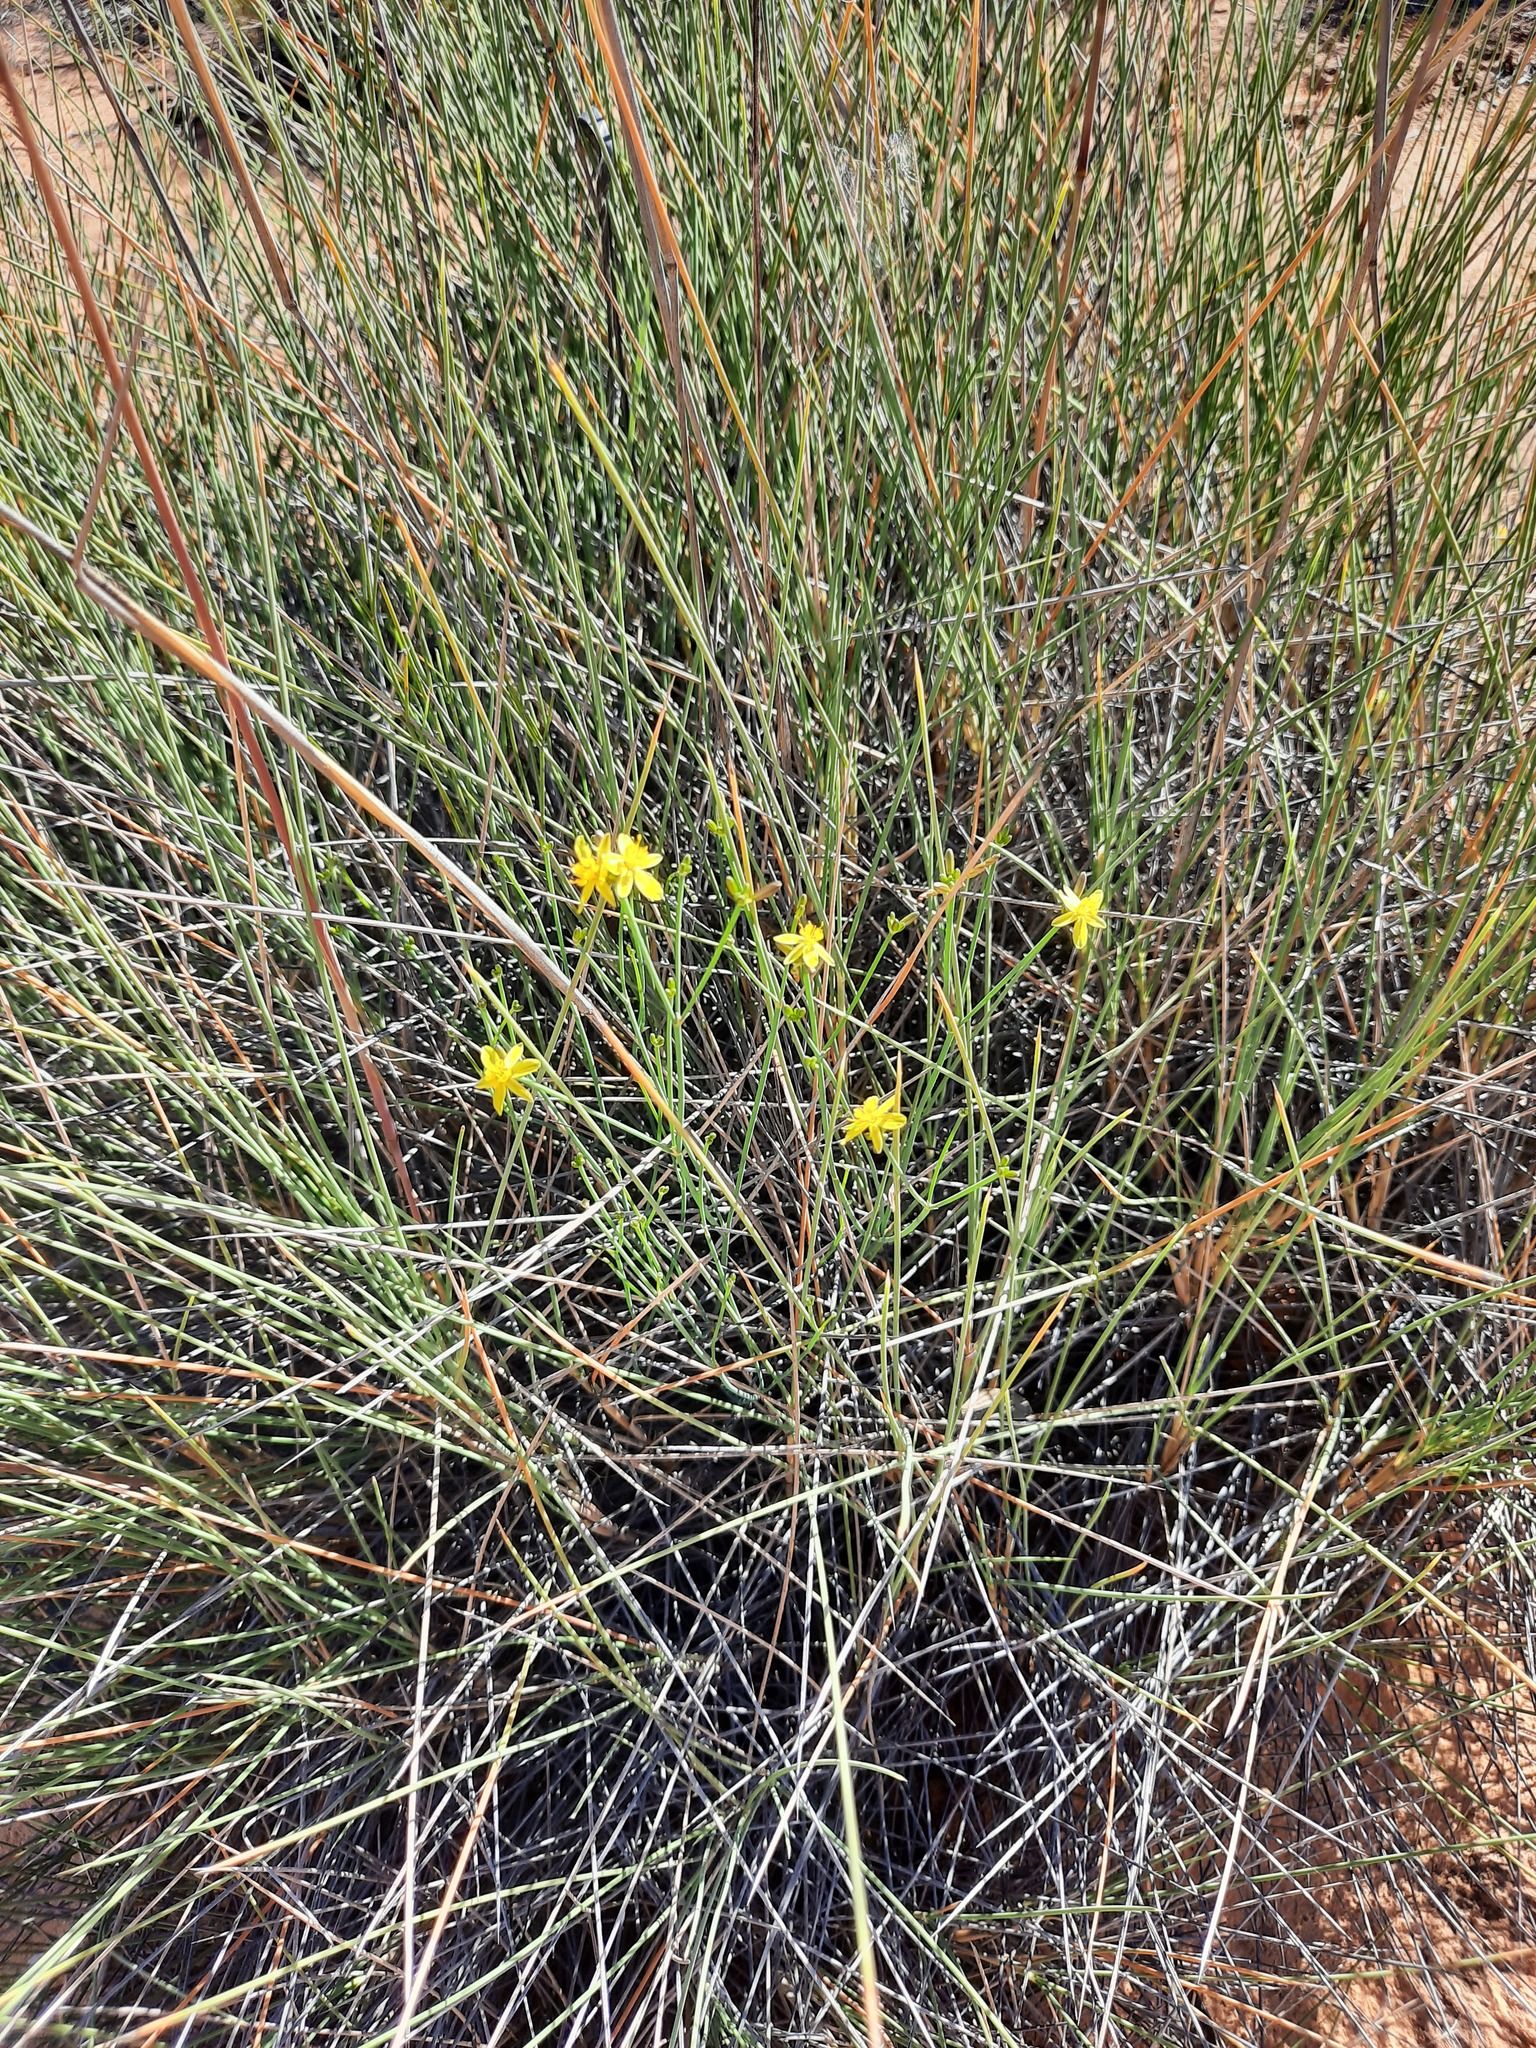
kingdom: Plantae
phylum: Tracheophyta
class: Liliopsida
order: Asparagales
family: Asphodelaceae
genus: Tricoryne
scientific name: Tricoryne tenella
